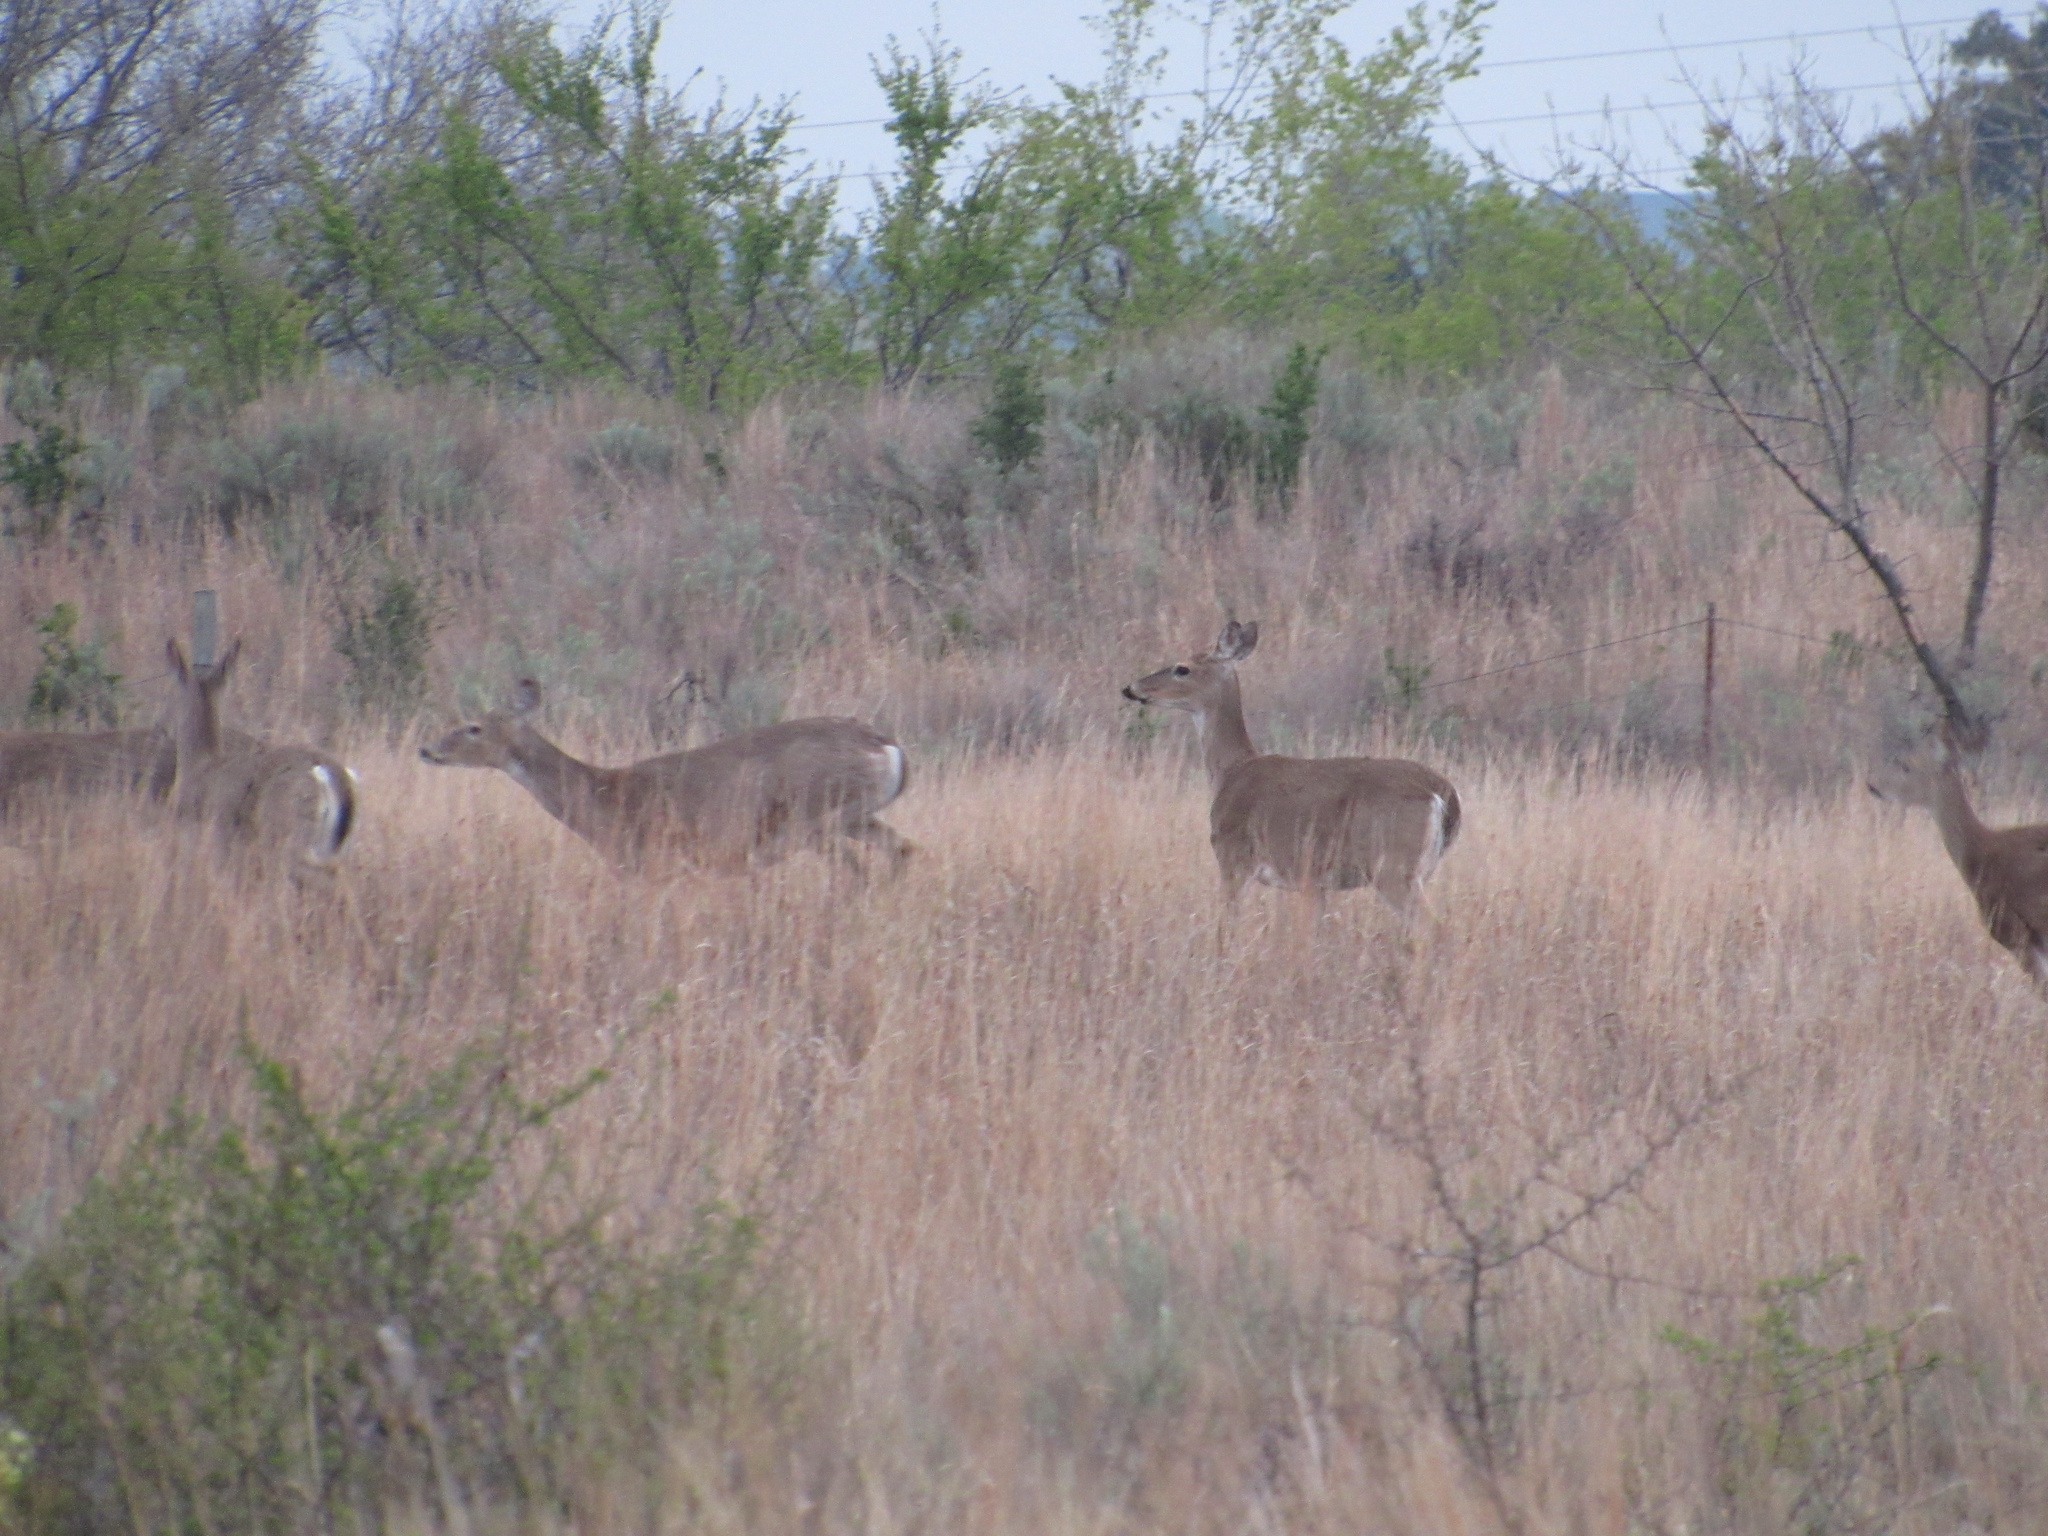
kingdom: Animalia
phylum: Chordata
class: Mammalia
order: Artiodactyla
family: Cervidae
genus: Odocoileus
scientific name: Odocoileus virginianus
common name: White-tailed deer
